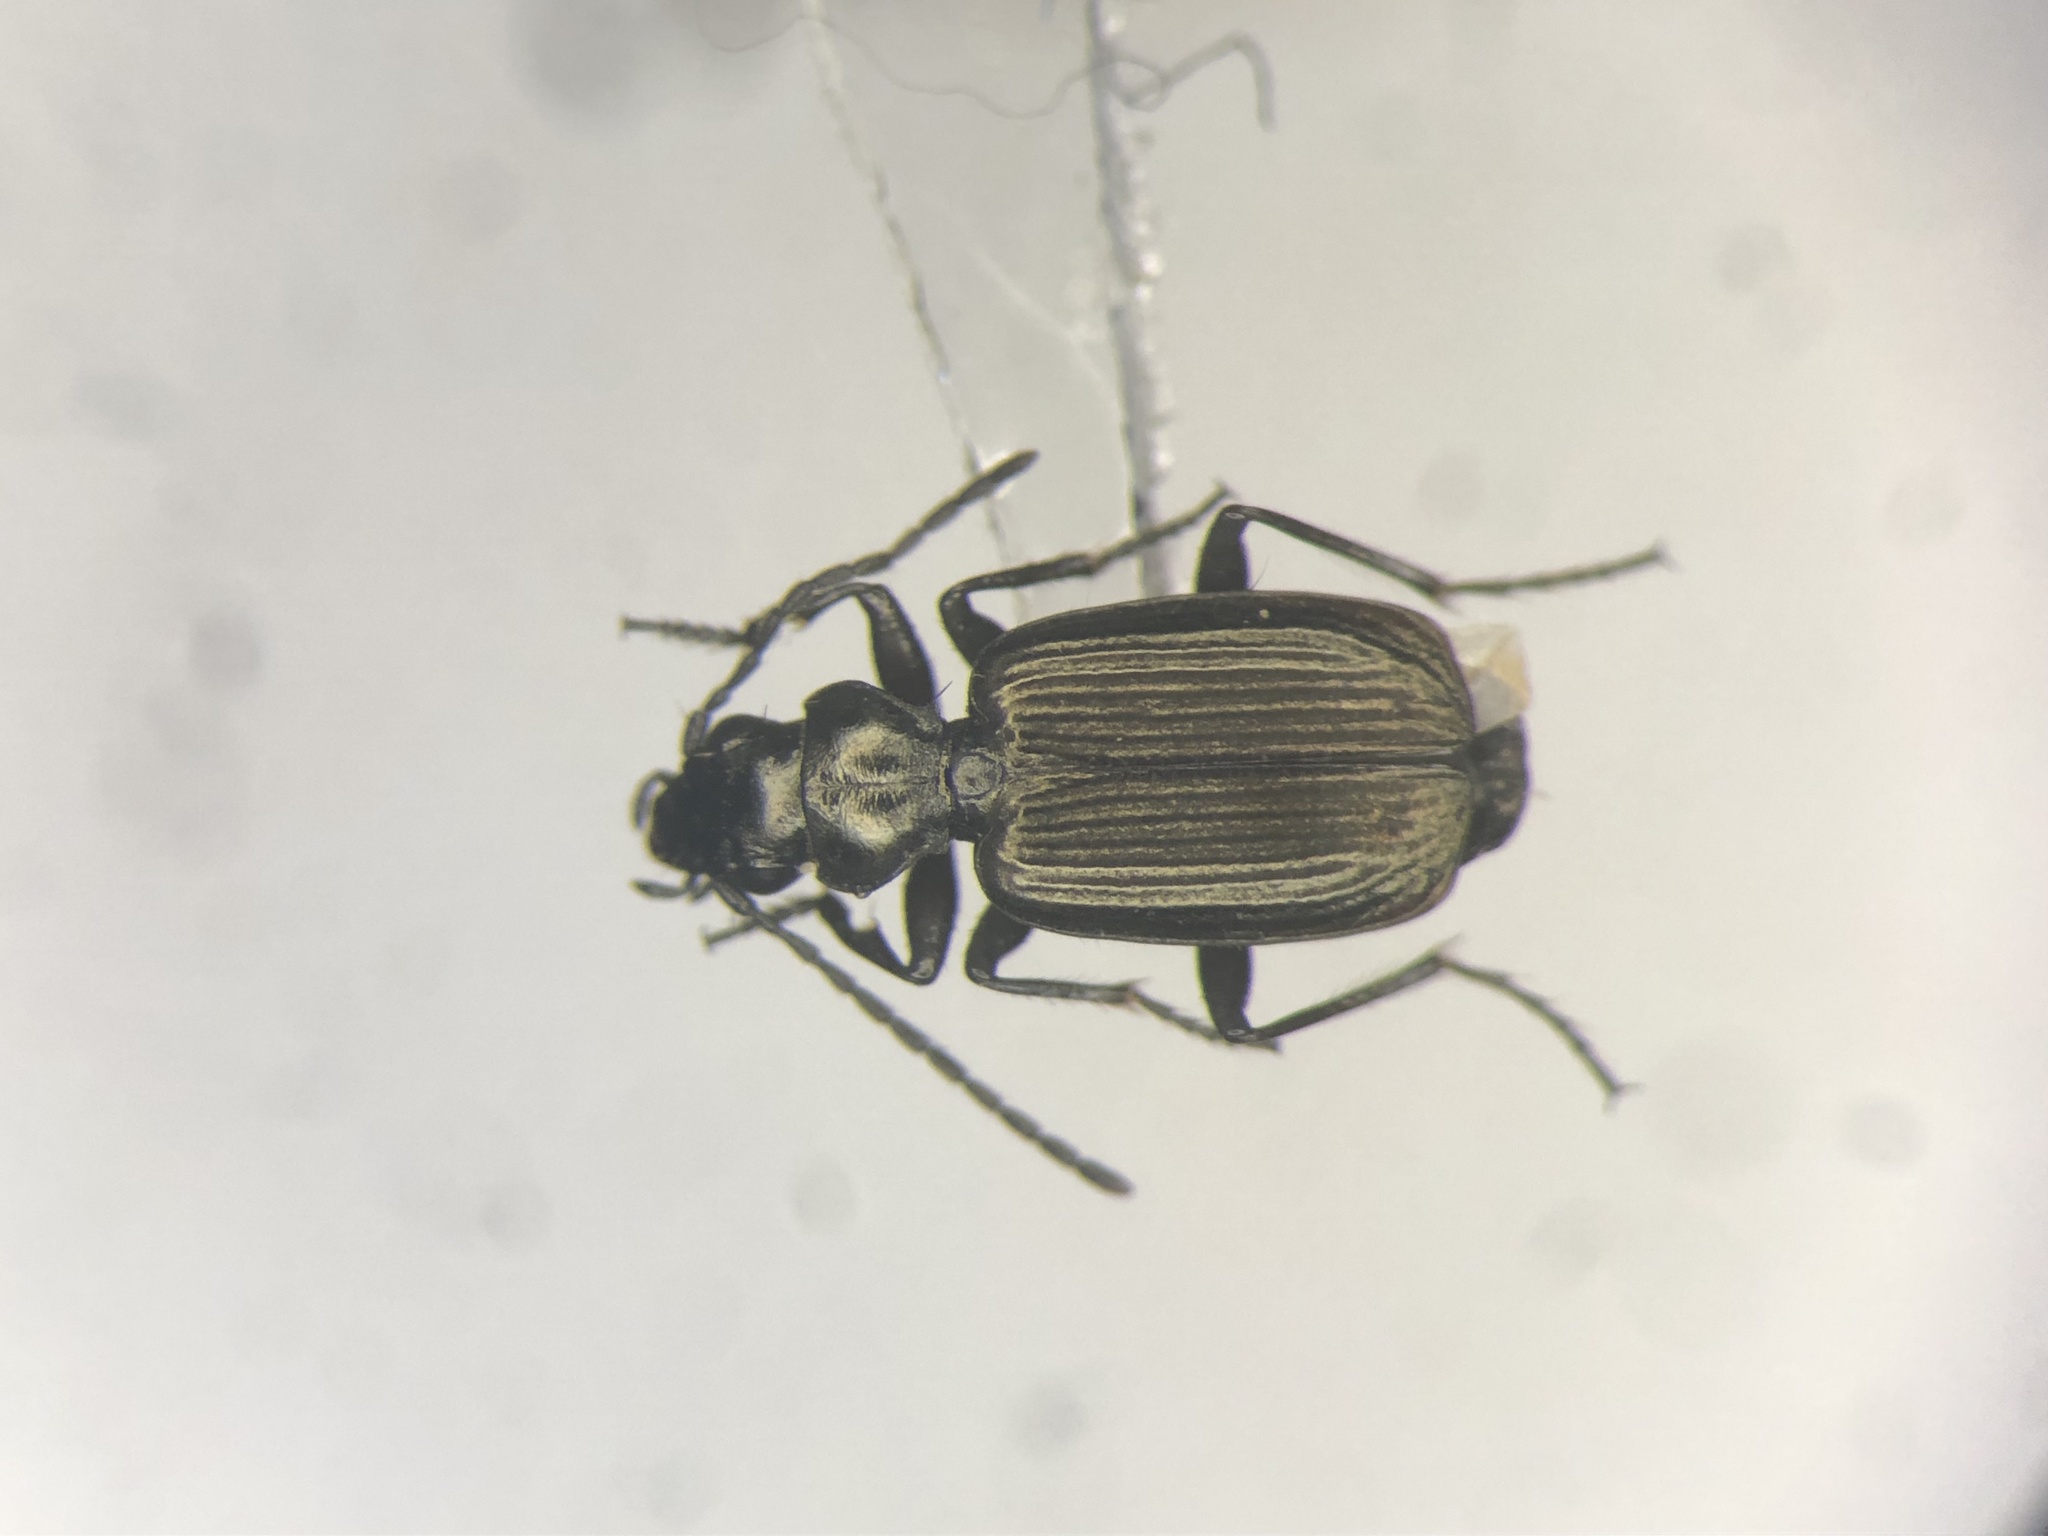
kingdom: Animalia
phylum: Arthropoda
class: Insecta
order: Coleoptera
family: Carabidae
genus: Apristus
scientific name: Apristus subsulcatus
